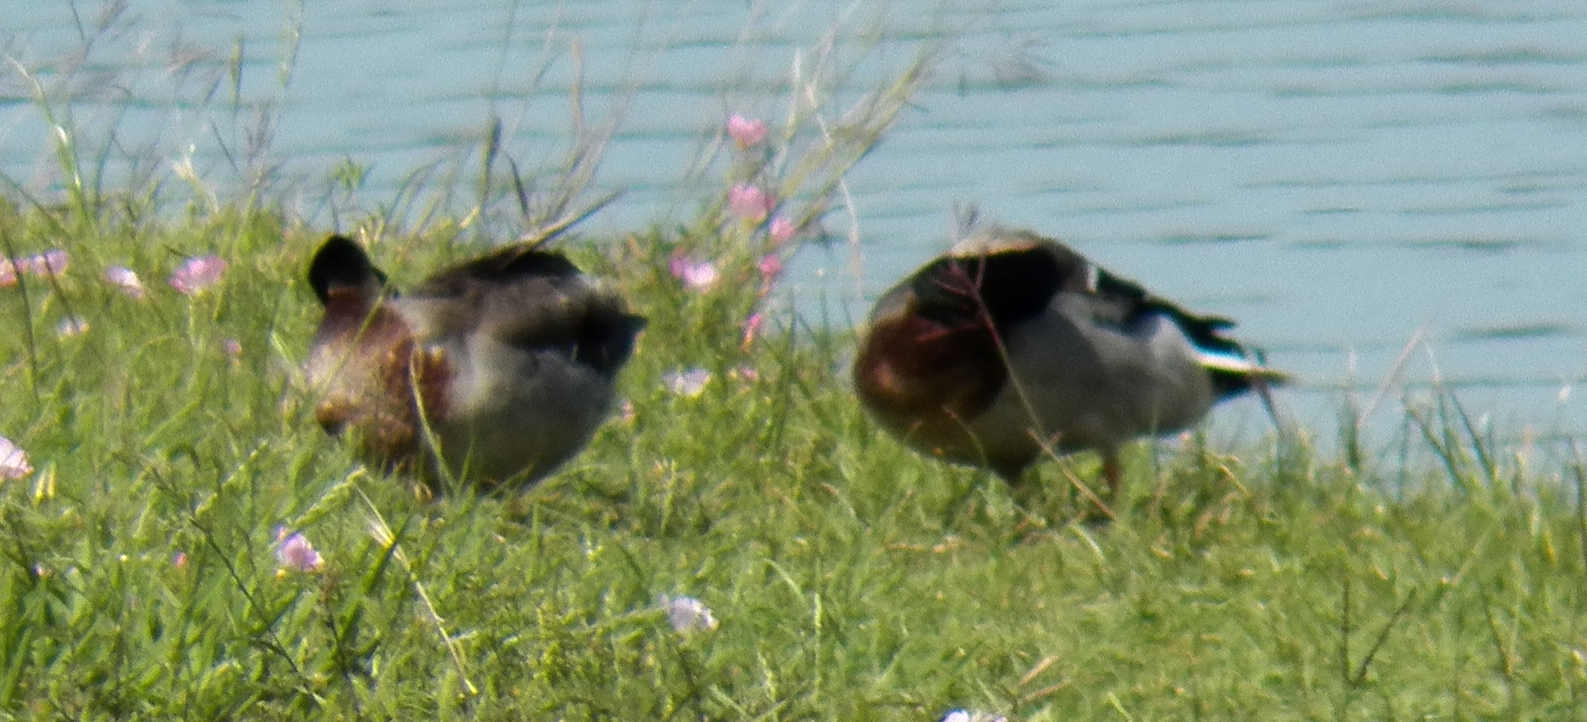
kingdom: Animalia
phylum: Chordata
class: Aves
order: Anseriformes
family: Anatidae
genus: Anas
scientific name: Anas platyrhynchos
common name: Mallard
